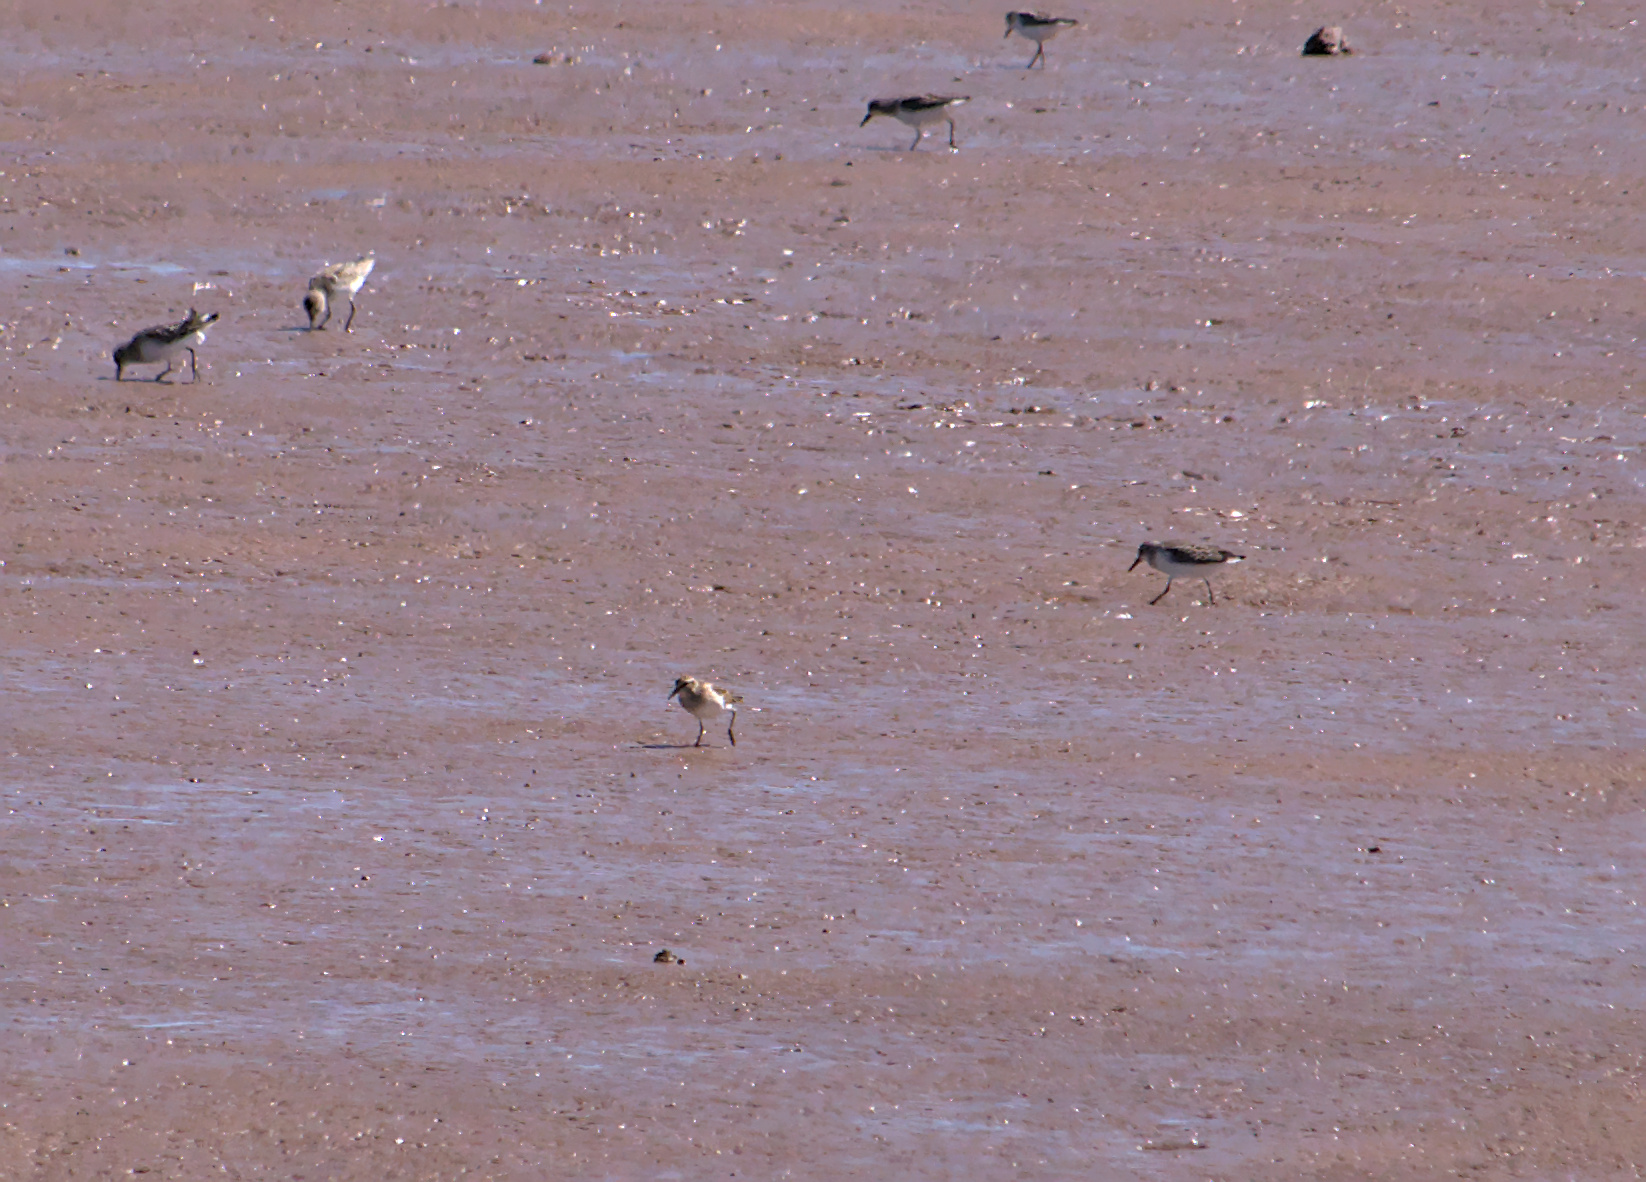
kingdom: Animalia
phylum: Chordata
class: Aves
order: Charadriiformes
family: Scolopacidae
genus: Calidris
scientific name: Calidris pusilla
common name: Semipalmated sandpiper
